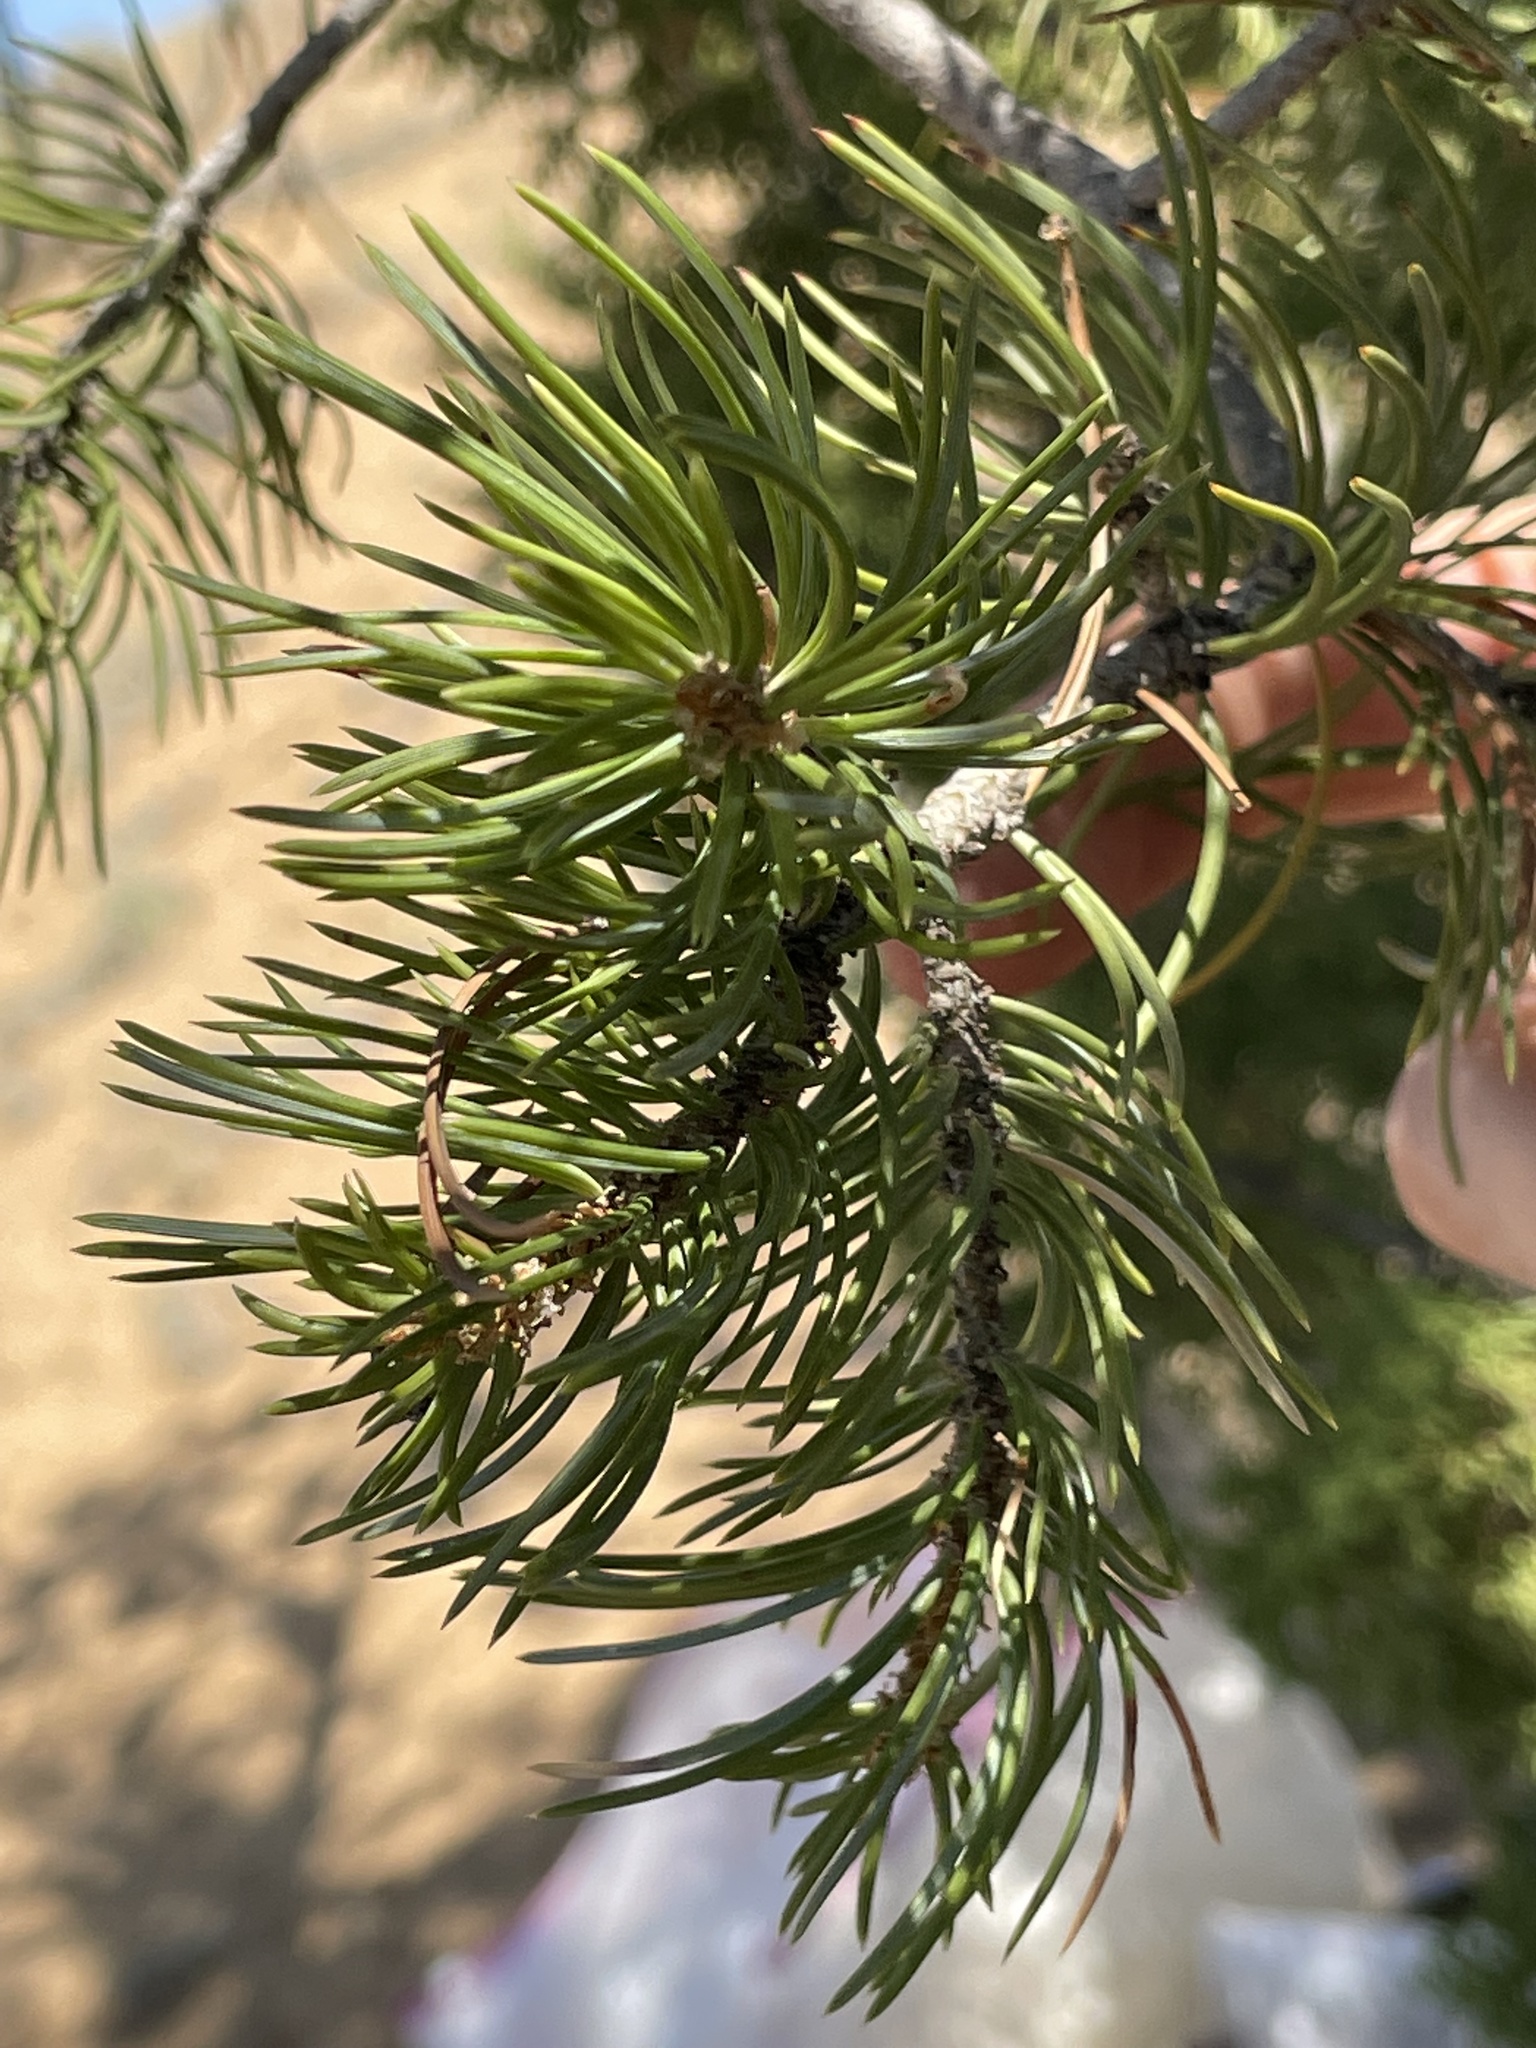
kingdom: Plantae
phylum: Tracheophyta
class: Pinopsida
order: Pinales
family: Pinaceae
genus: Pinus
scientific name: Pinus edulis
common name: Colorado pinyon
